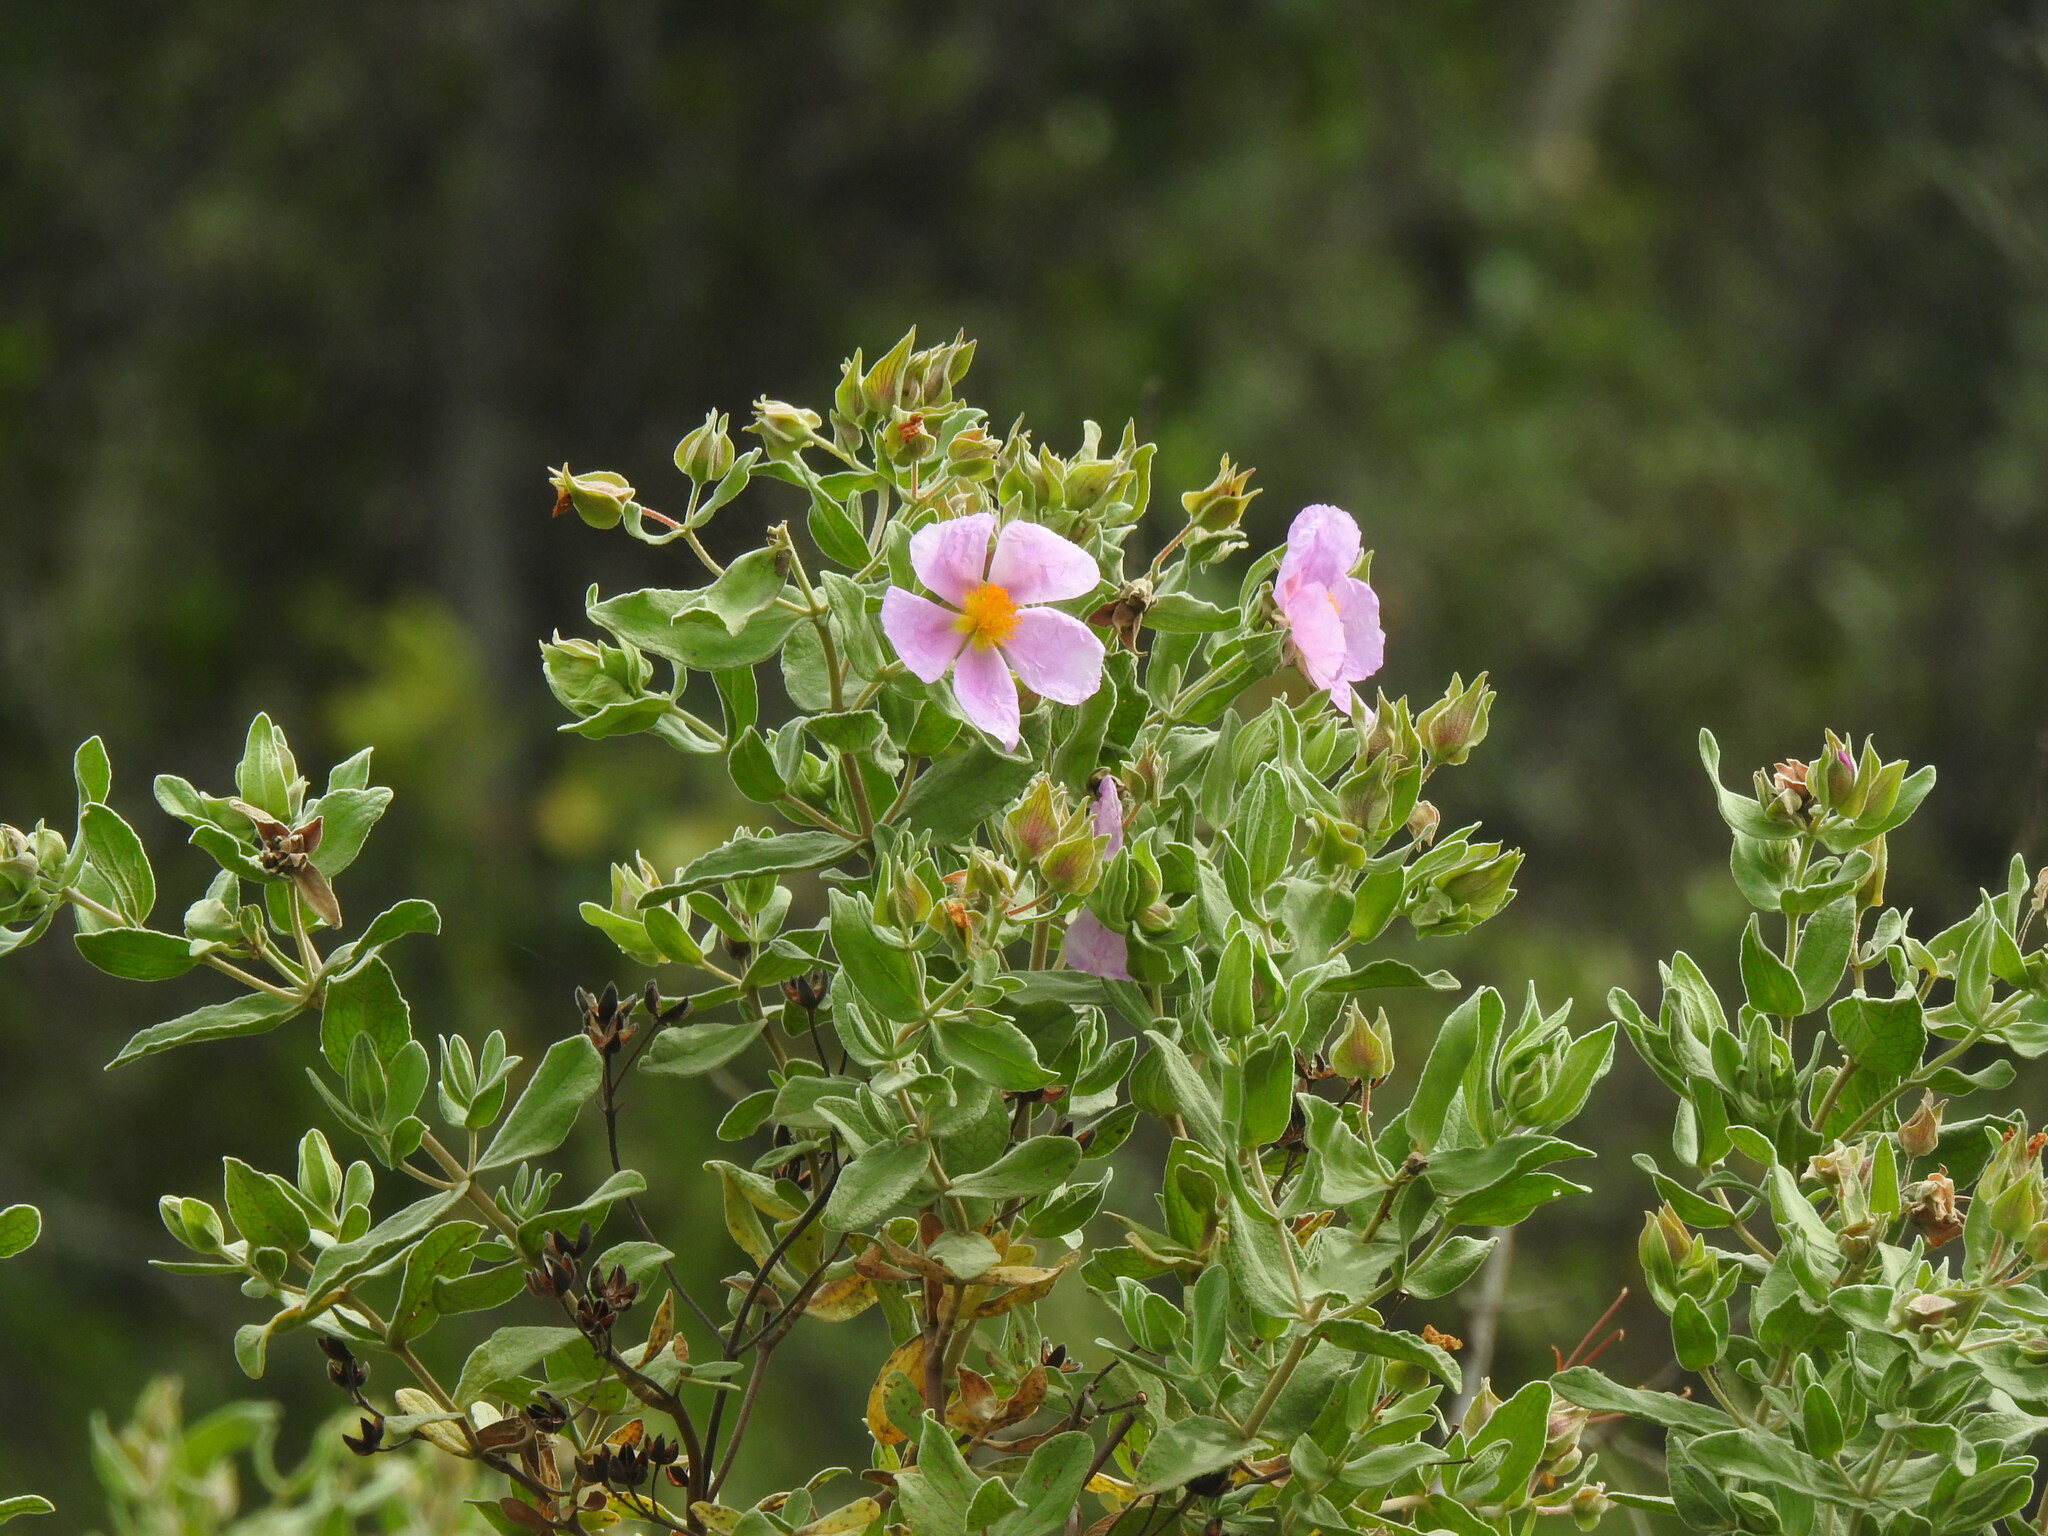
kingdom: Plantae
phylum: Tracheophyta
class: Magnoliopsida
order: Malvales
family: Cistaceae
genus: Cistus
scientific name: Cistus albidus
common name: White-leaf rock-rose
